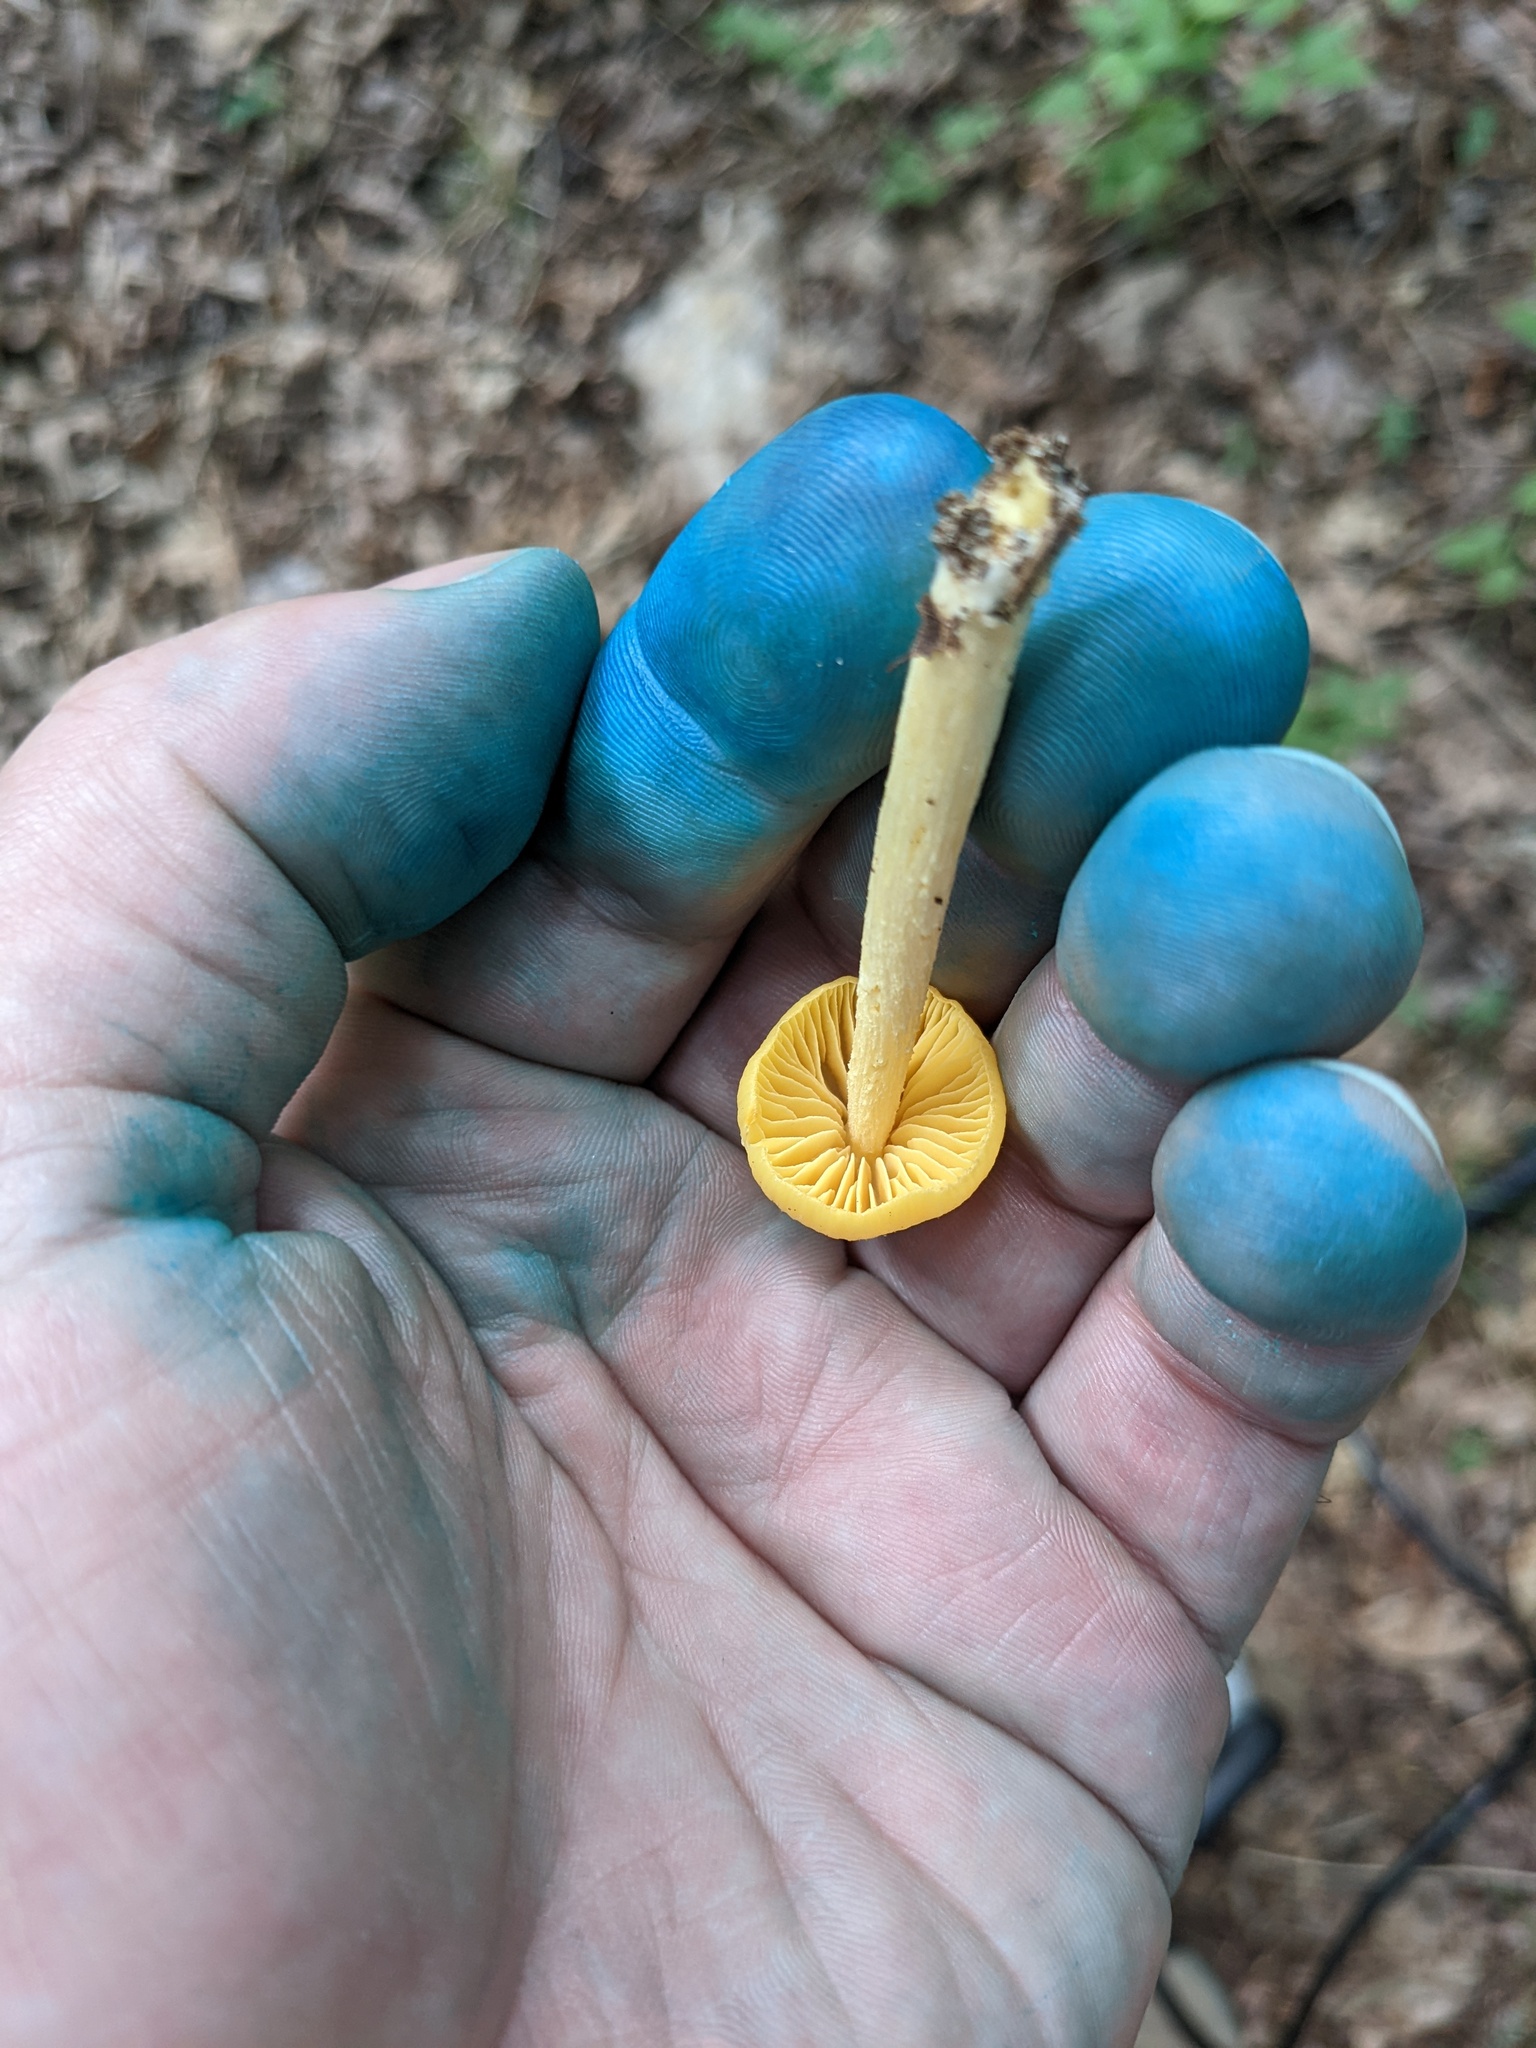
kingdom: Fungi
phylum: Basidiomycota
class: Agaricomycetes
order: Agaricales
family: Entolomataceae
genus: Entoloma
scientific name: Entoloma murrayi
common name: Yellow unicorn entoloma
